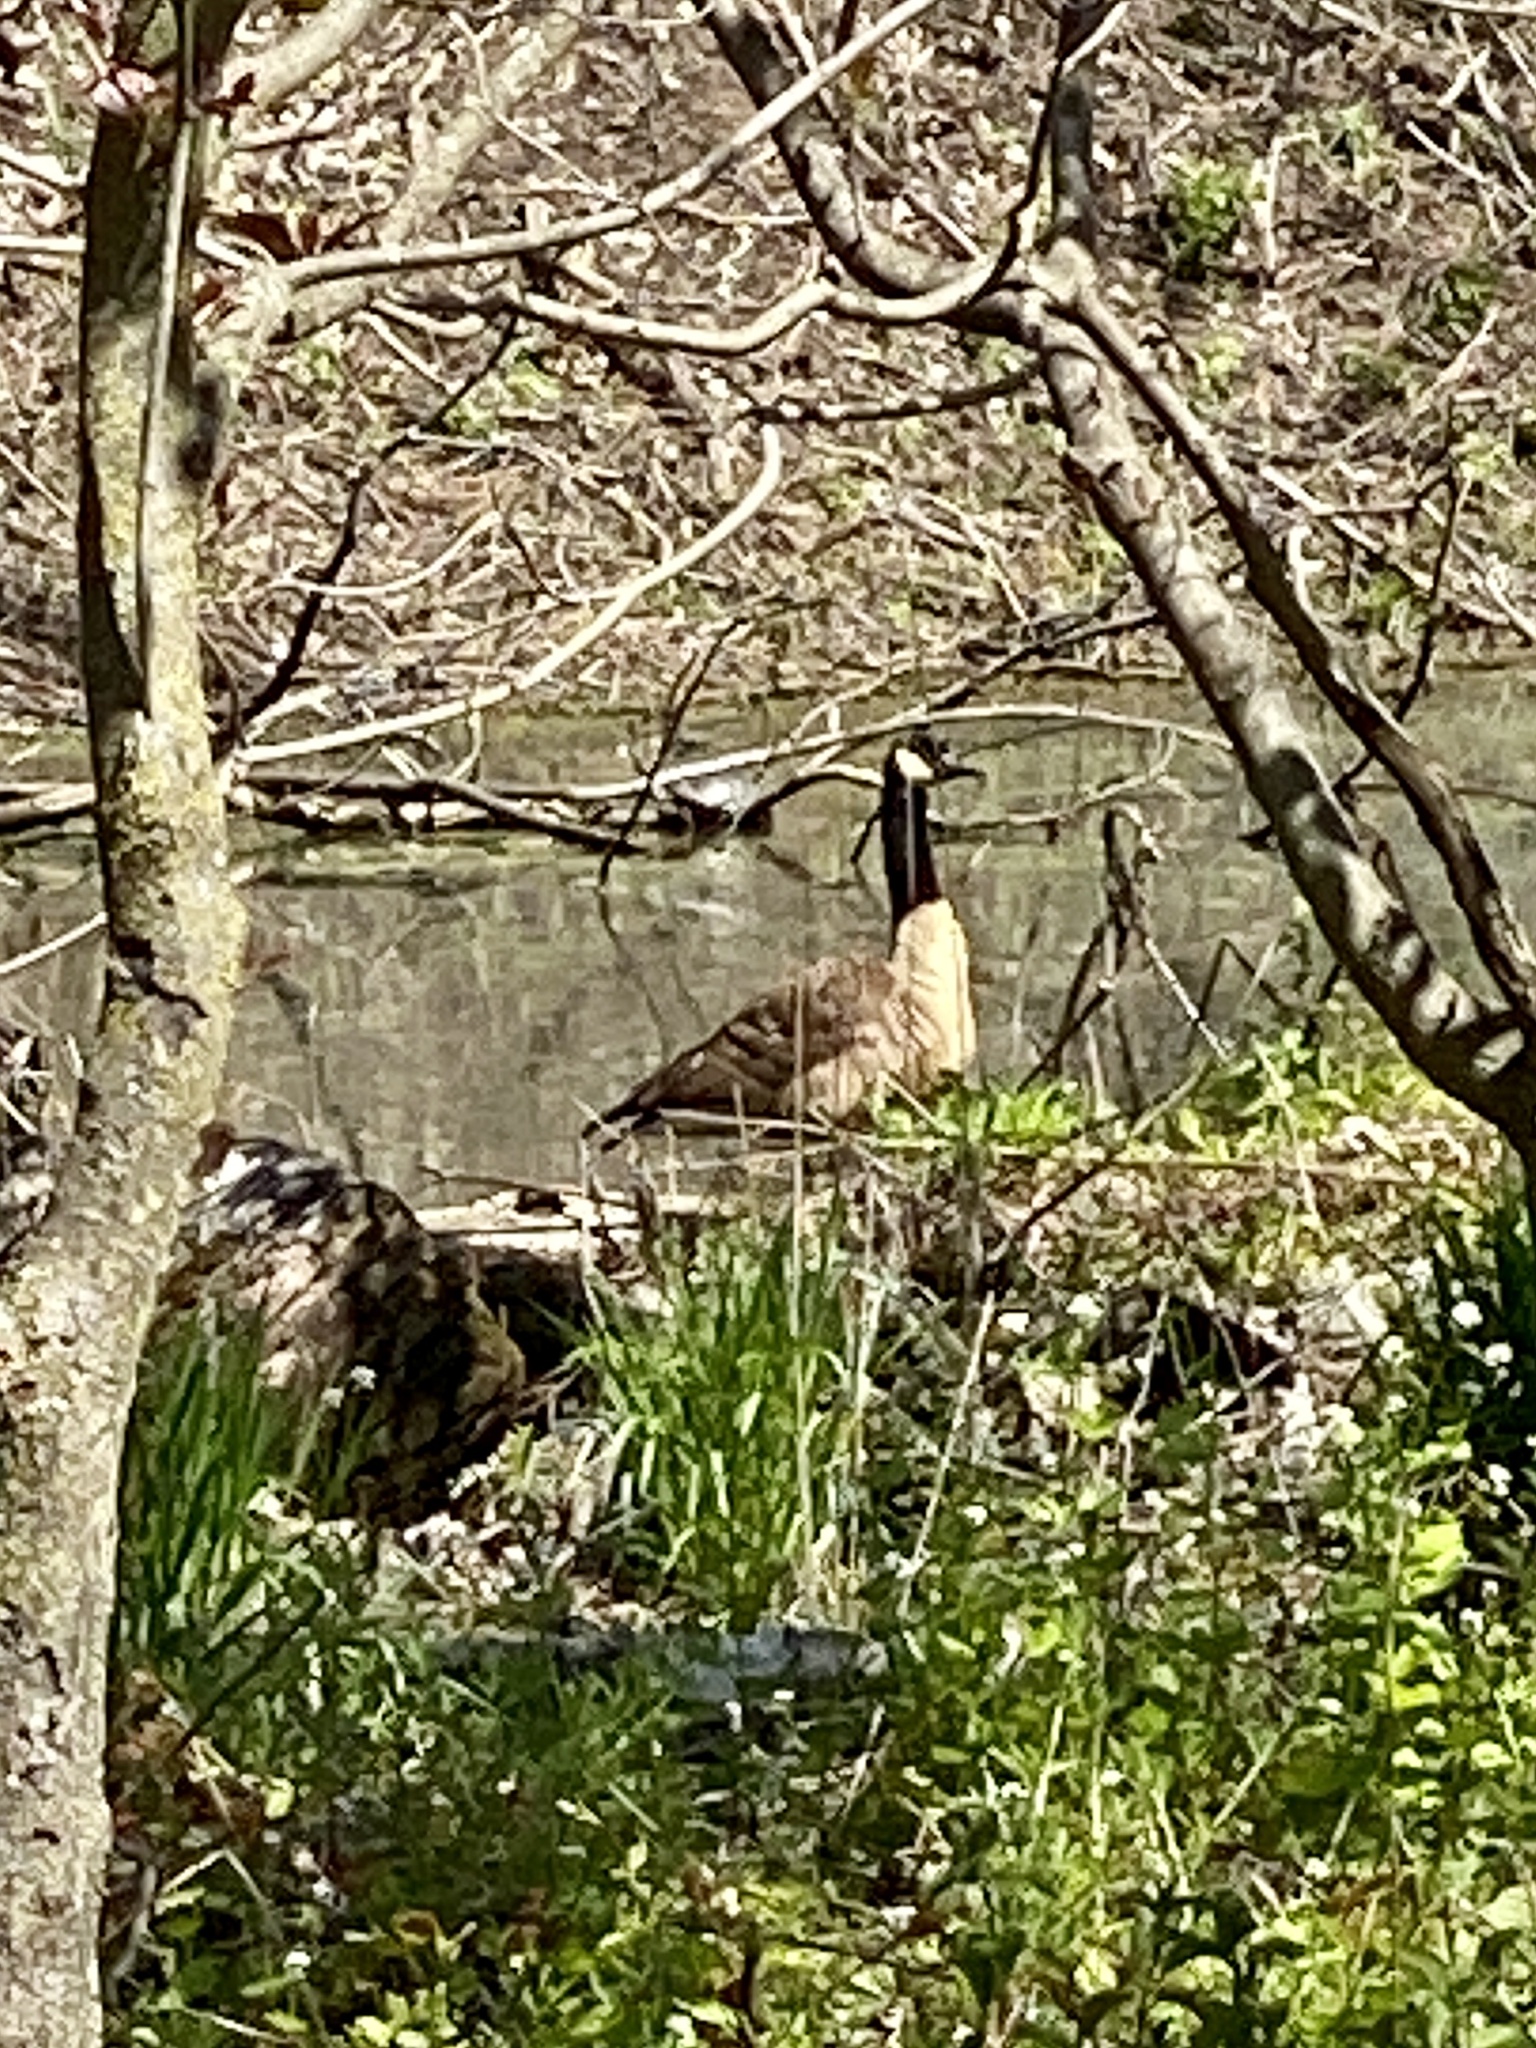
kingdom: Animalia
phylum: Chordata
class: Aves
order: Anseriformes
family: Anatidae
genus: Branta
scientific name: Branta canadensis
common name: Canada goose
